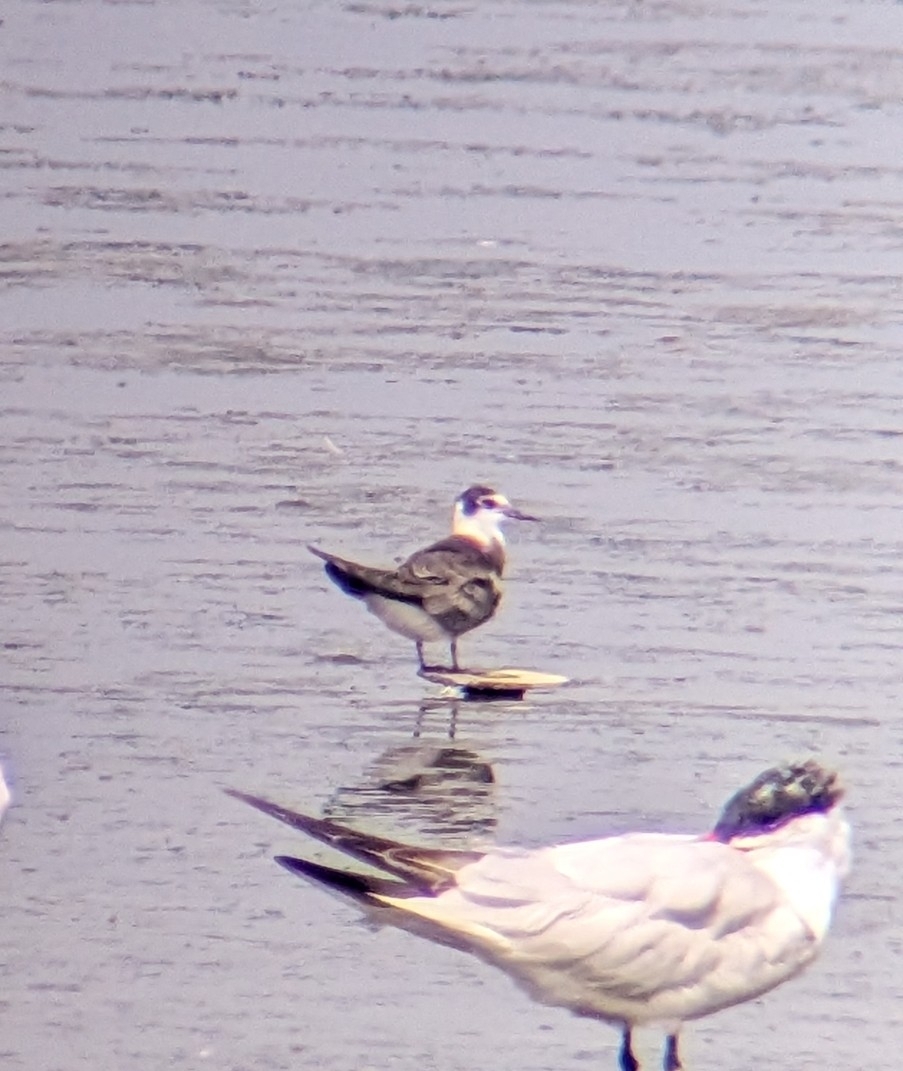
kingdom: Animalia
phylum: Chordata
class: Aves
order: Charadriiformes
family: Laridae
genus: Chlidonias
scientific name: Chlidonias niger
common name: Black tern
